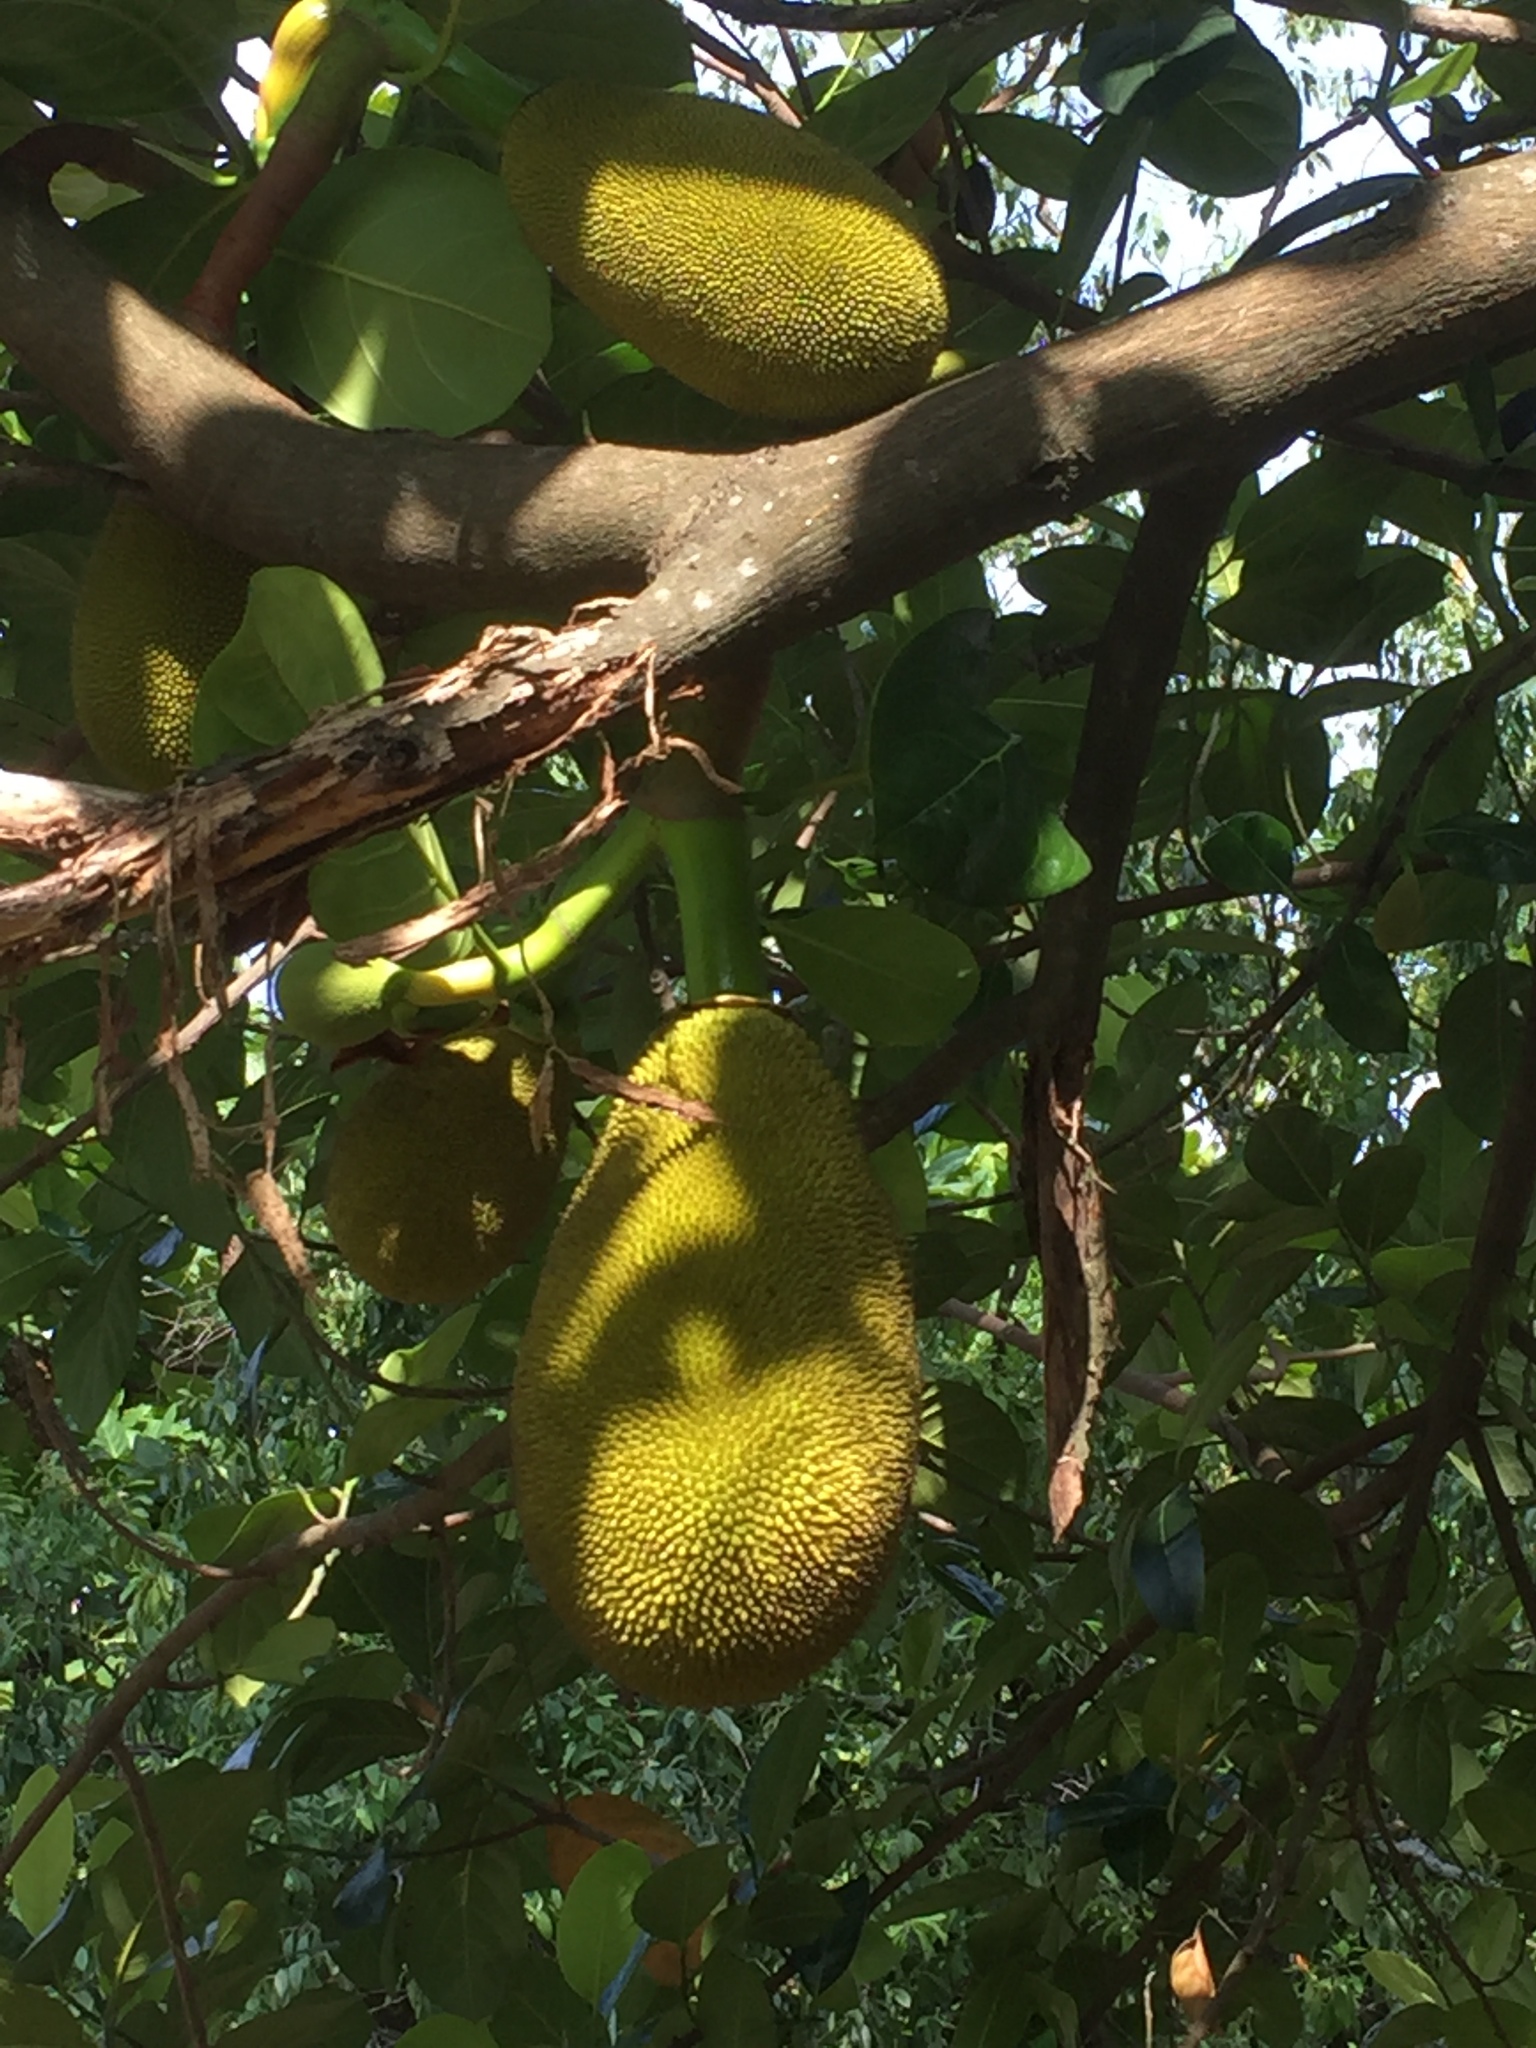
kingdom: Plantae
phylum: Tracheophyta
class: Magnoliopsida
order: Rosales
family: Moraceae
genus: Artocarpus
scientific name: Artocarpus heterophyllus
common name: Jackfruit
